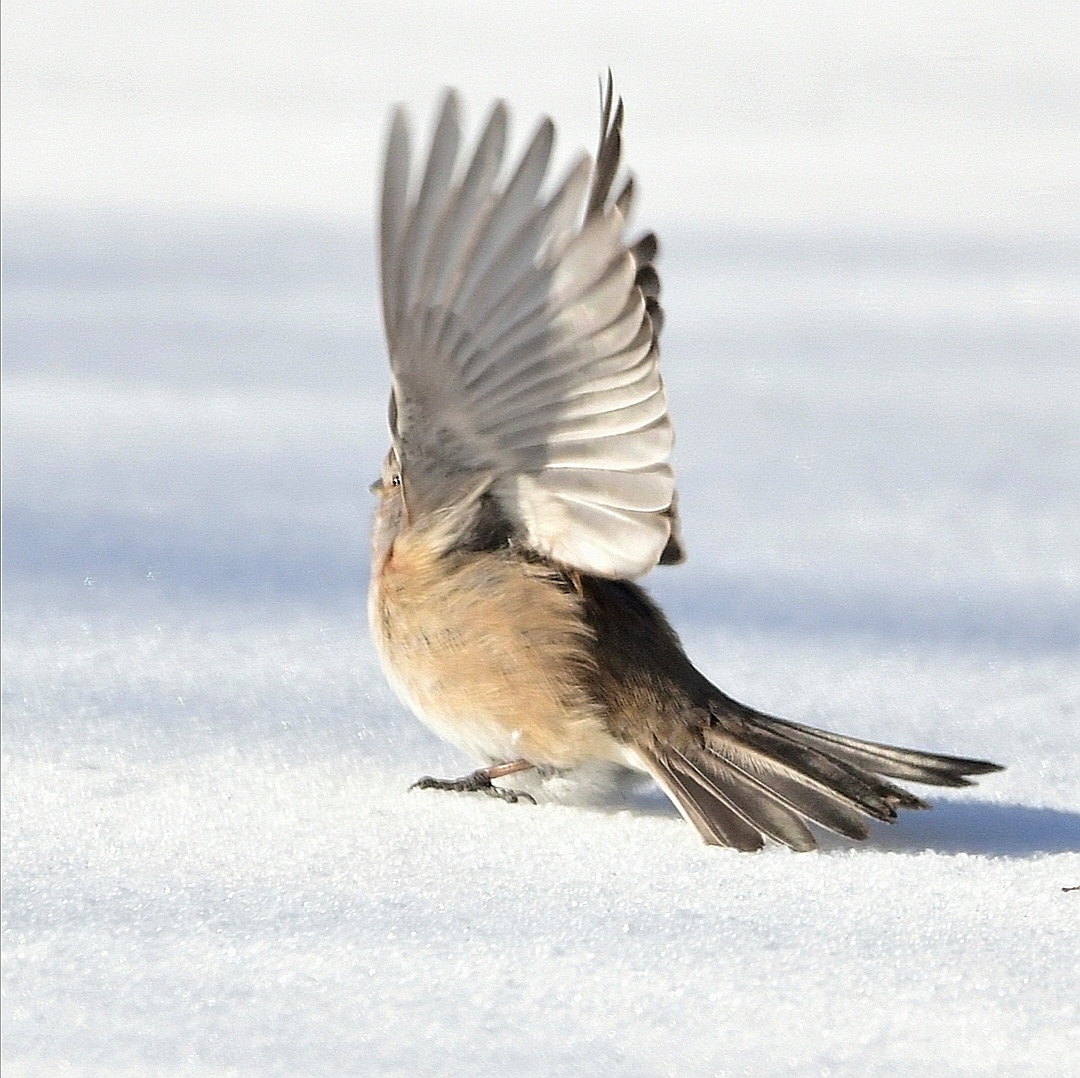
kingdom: Animalia
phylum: Chordata
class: Aves
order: Passeriformes
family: Passerellidae
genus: Spizelloides
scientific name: Spizelloides arborea
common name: American tree sparrow
